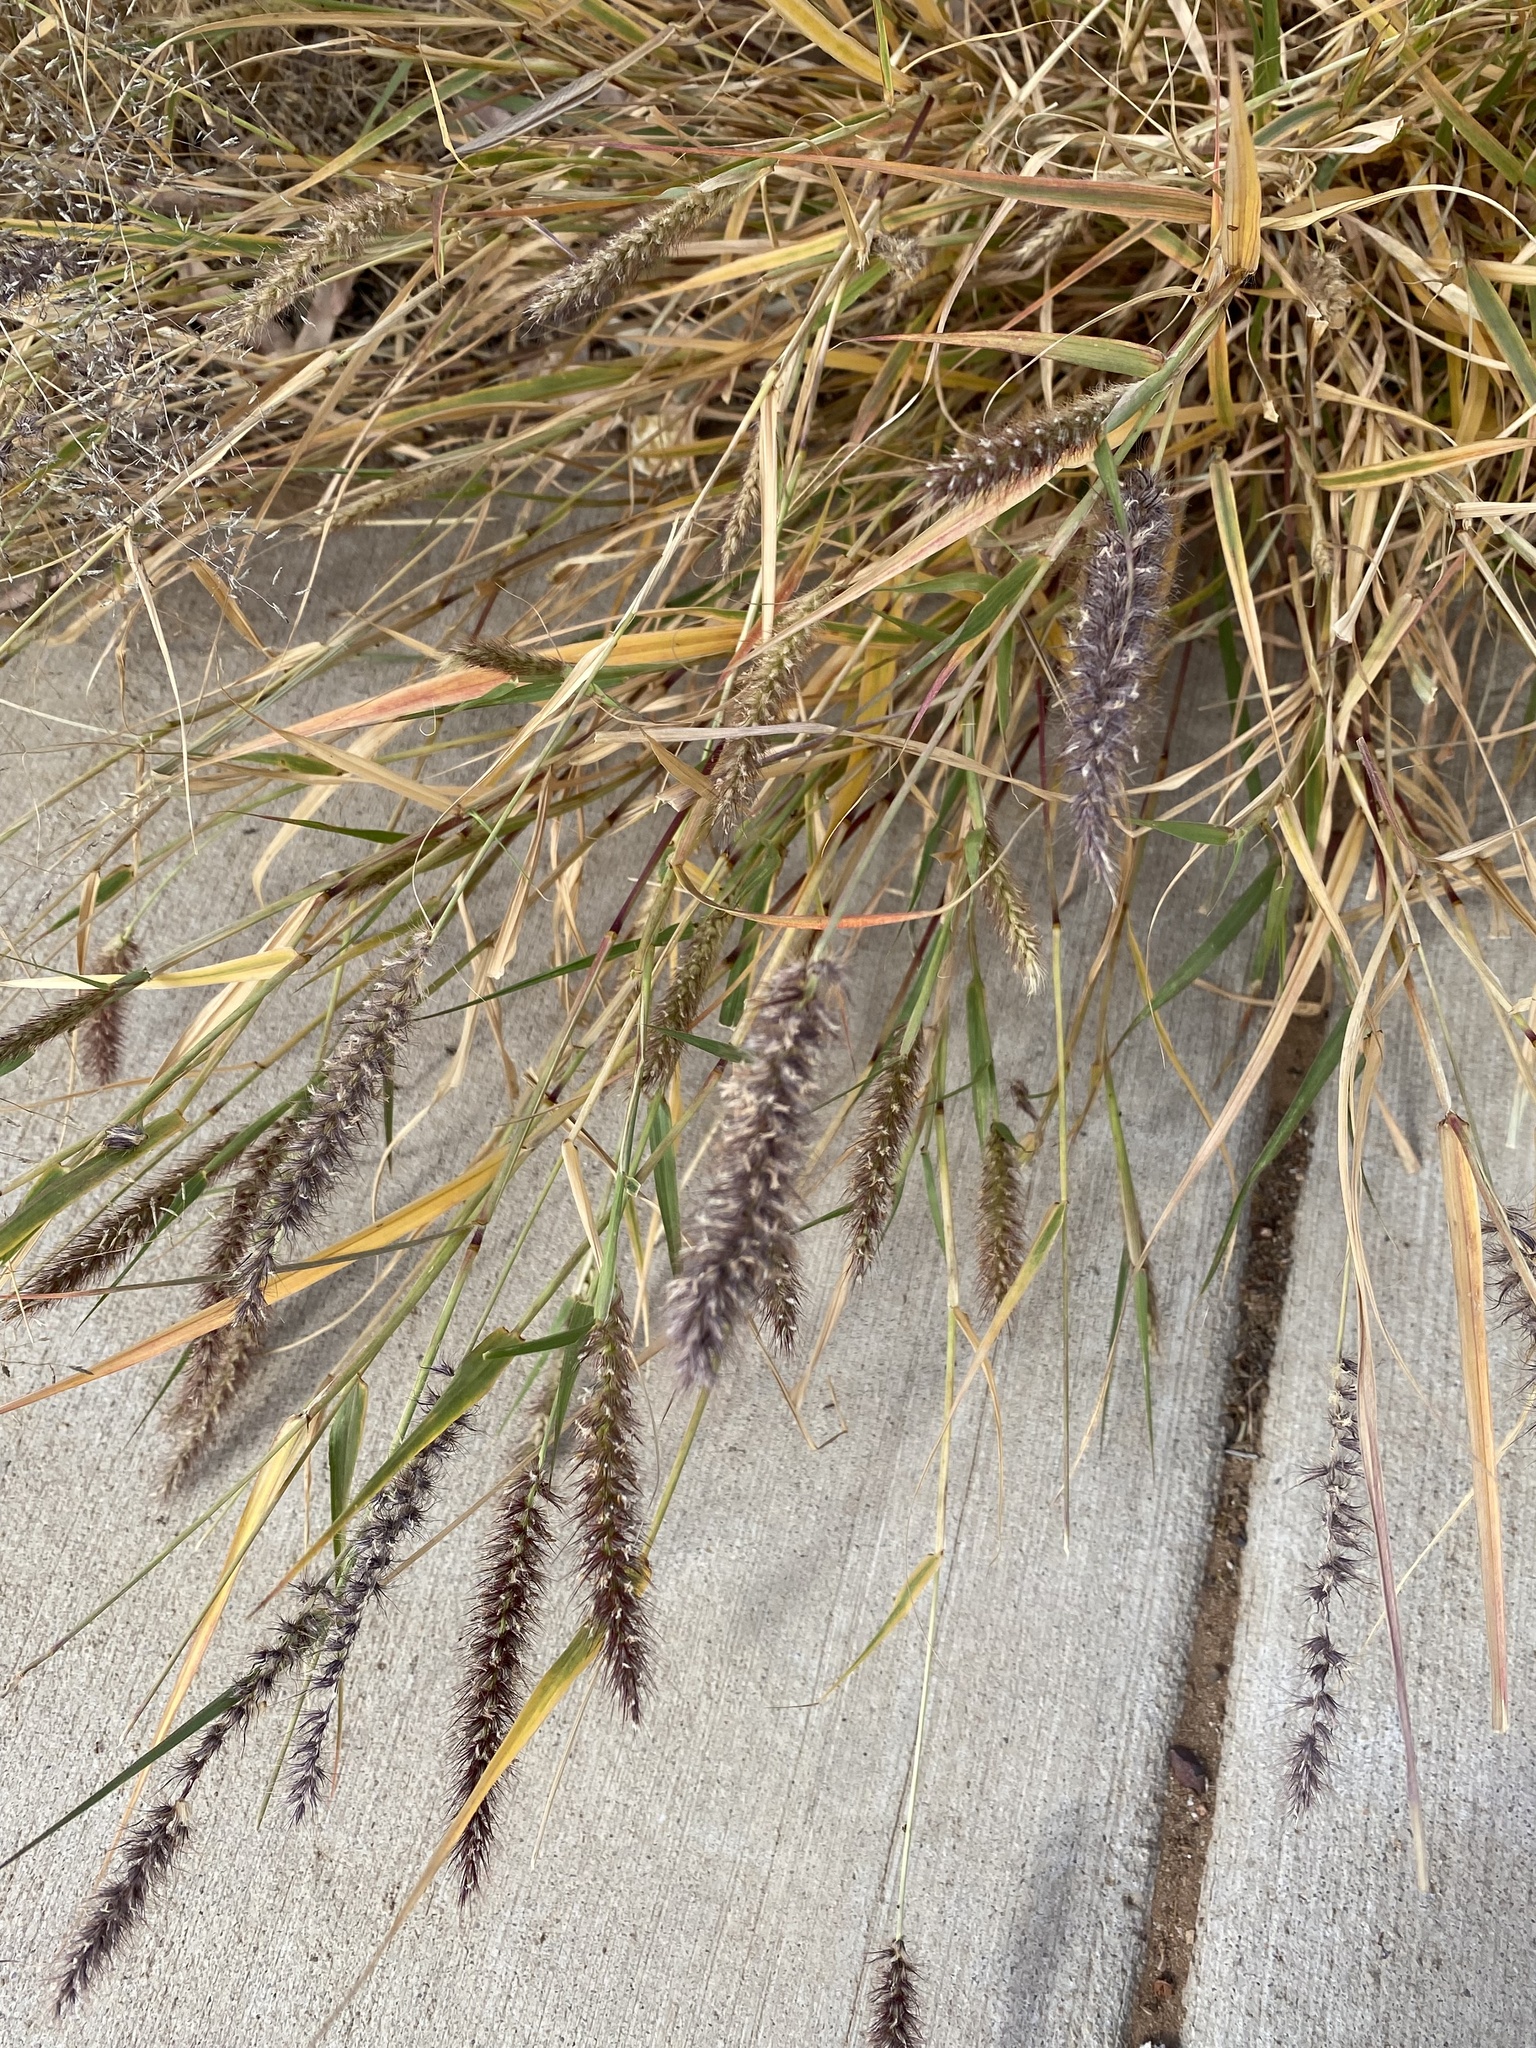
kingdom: Plantae
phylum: Tracheophyta
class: Liliopsida
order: Poales
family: Poaceae
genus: Cenchrus
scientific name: Cenchrus ciliaris
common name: Buffelgrass
